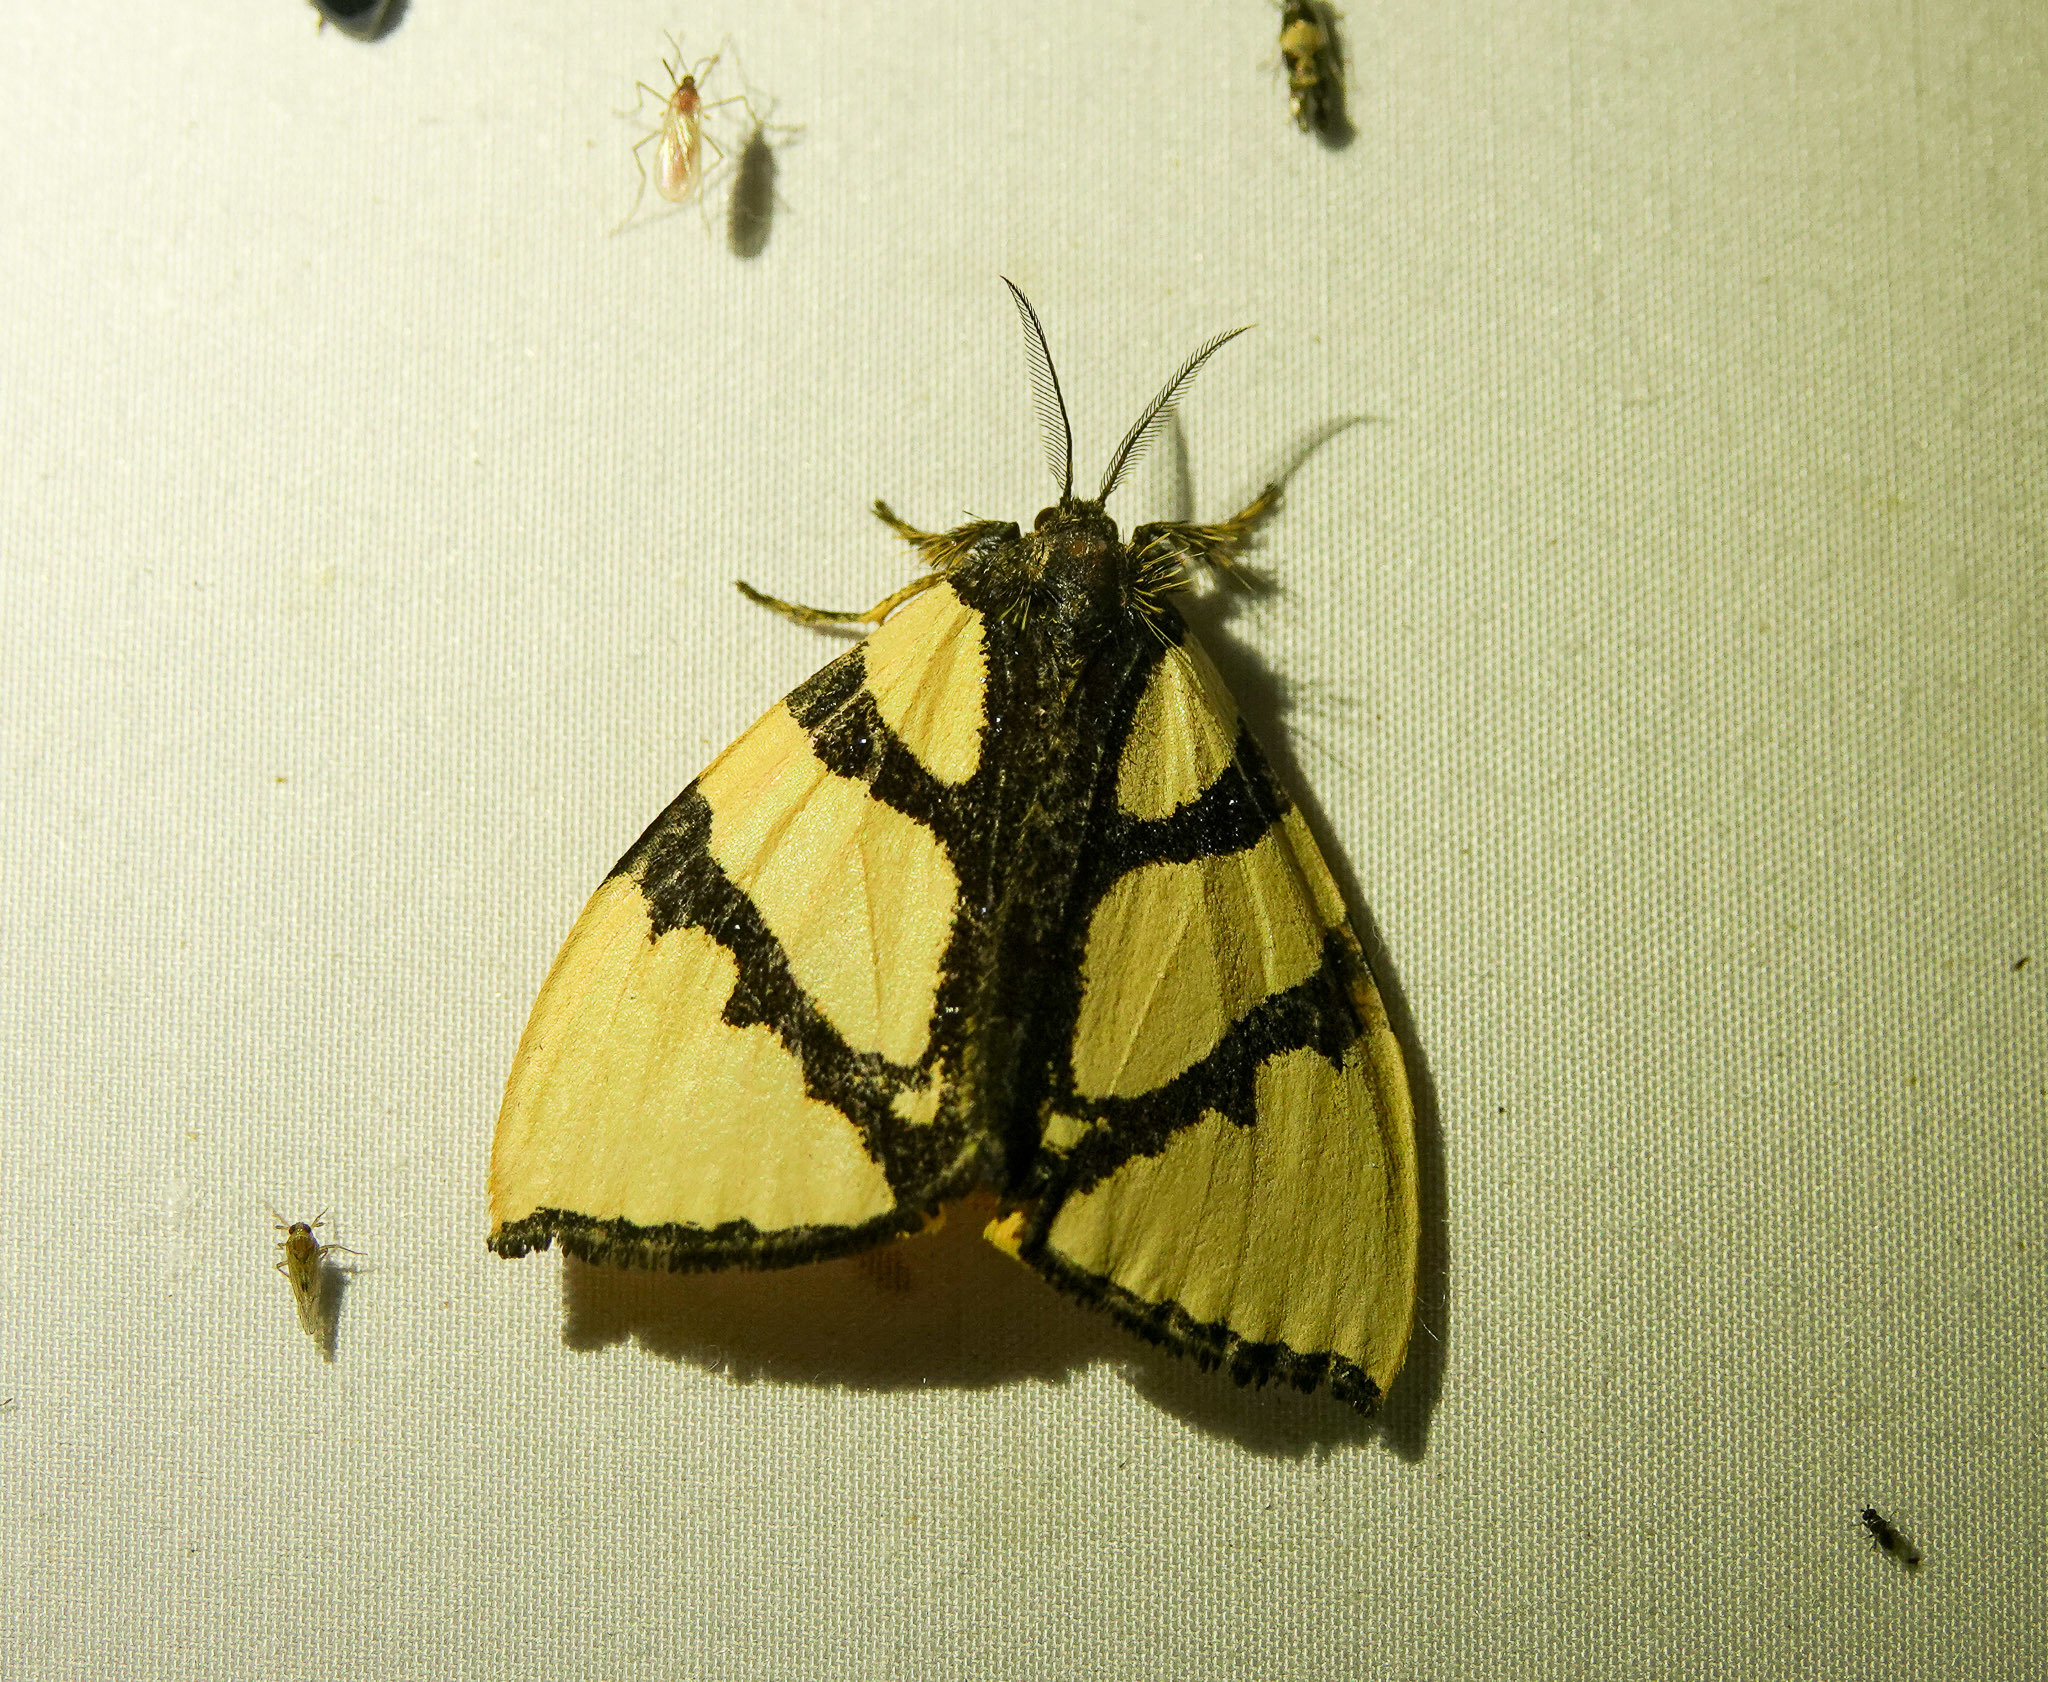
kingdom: Animalia
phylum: Arthropoda
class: Insecta
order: Lepidoptera
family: Erebidae
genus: Numenes
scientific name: Numenes siletti
